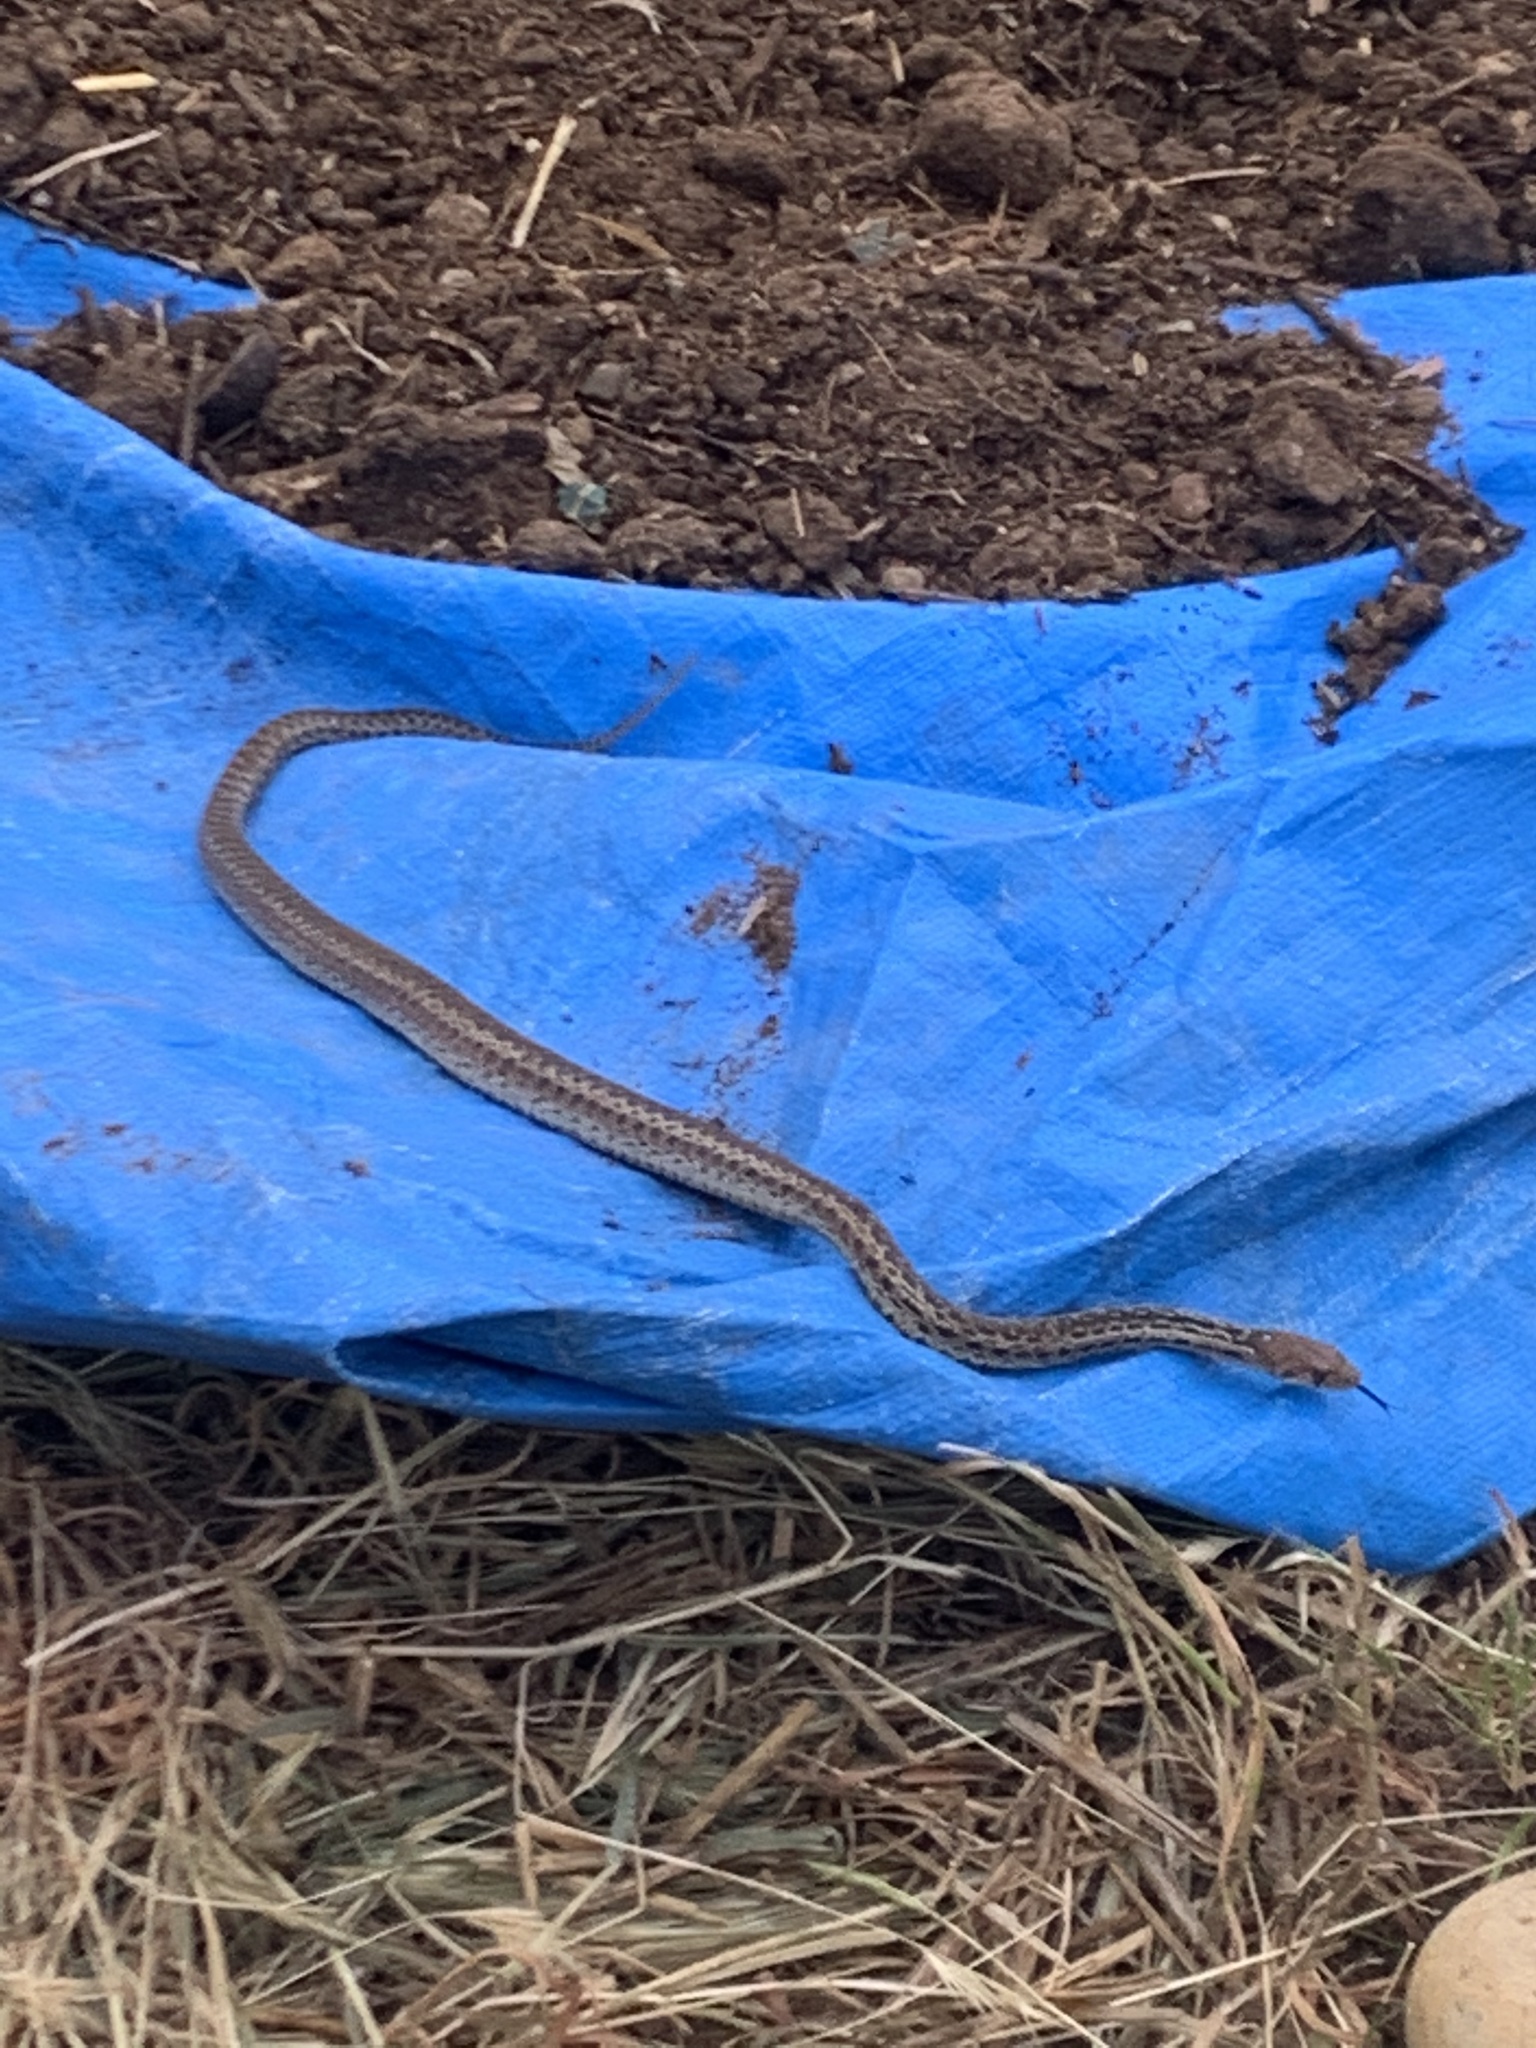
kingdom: Animalia
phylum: Chordata
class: Squamata
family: Colubridae
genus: Pituophis
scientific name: Pituophis catenifer
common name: Gopher snake
